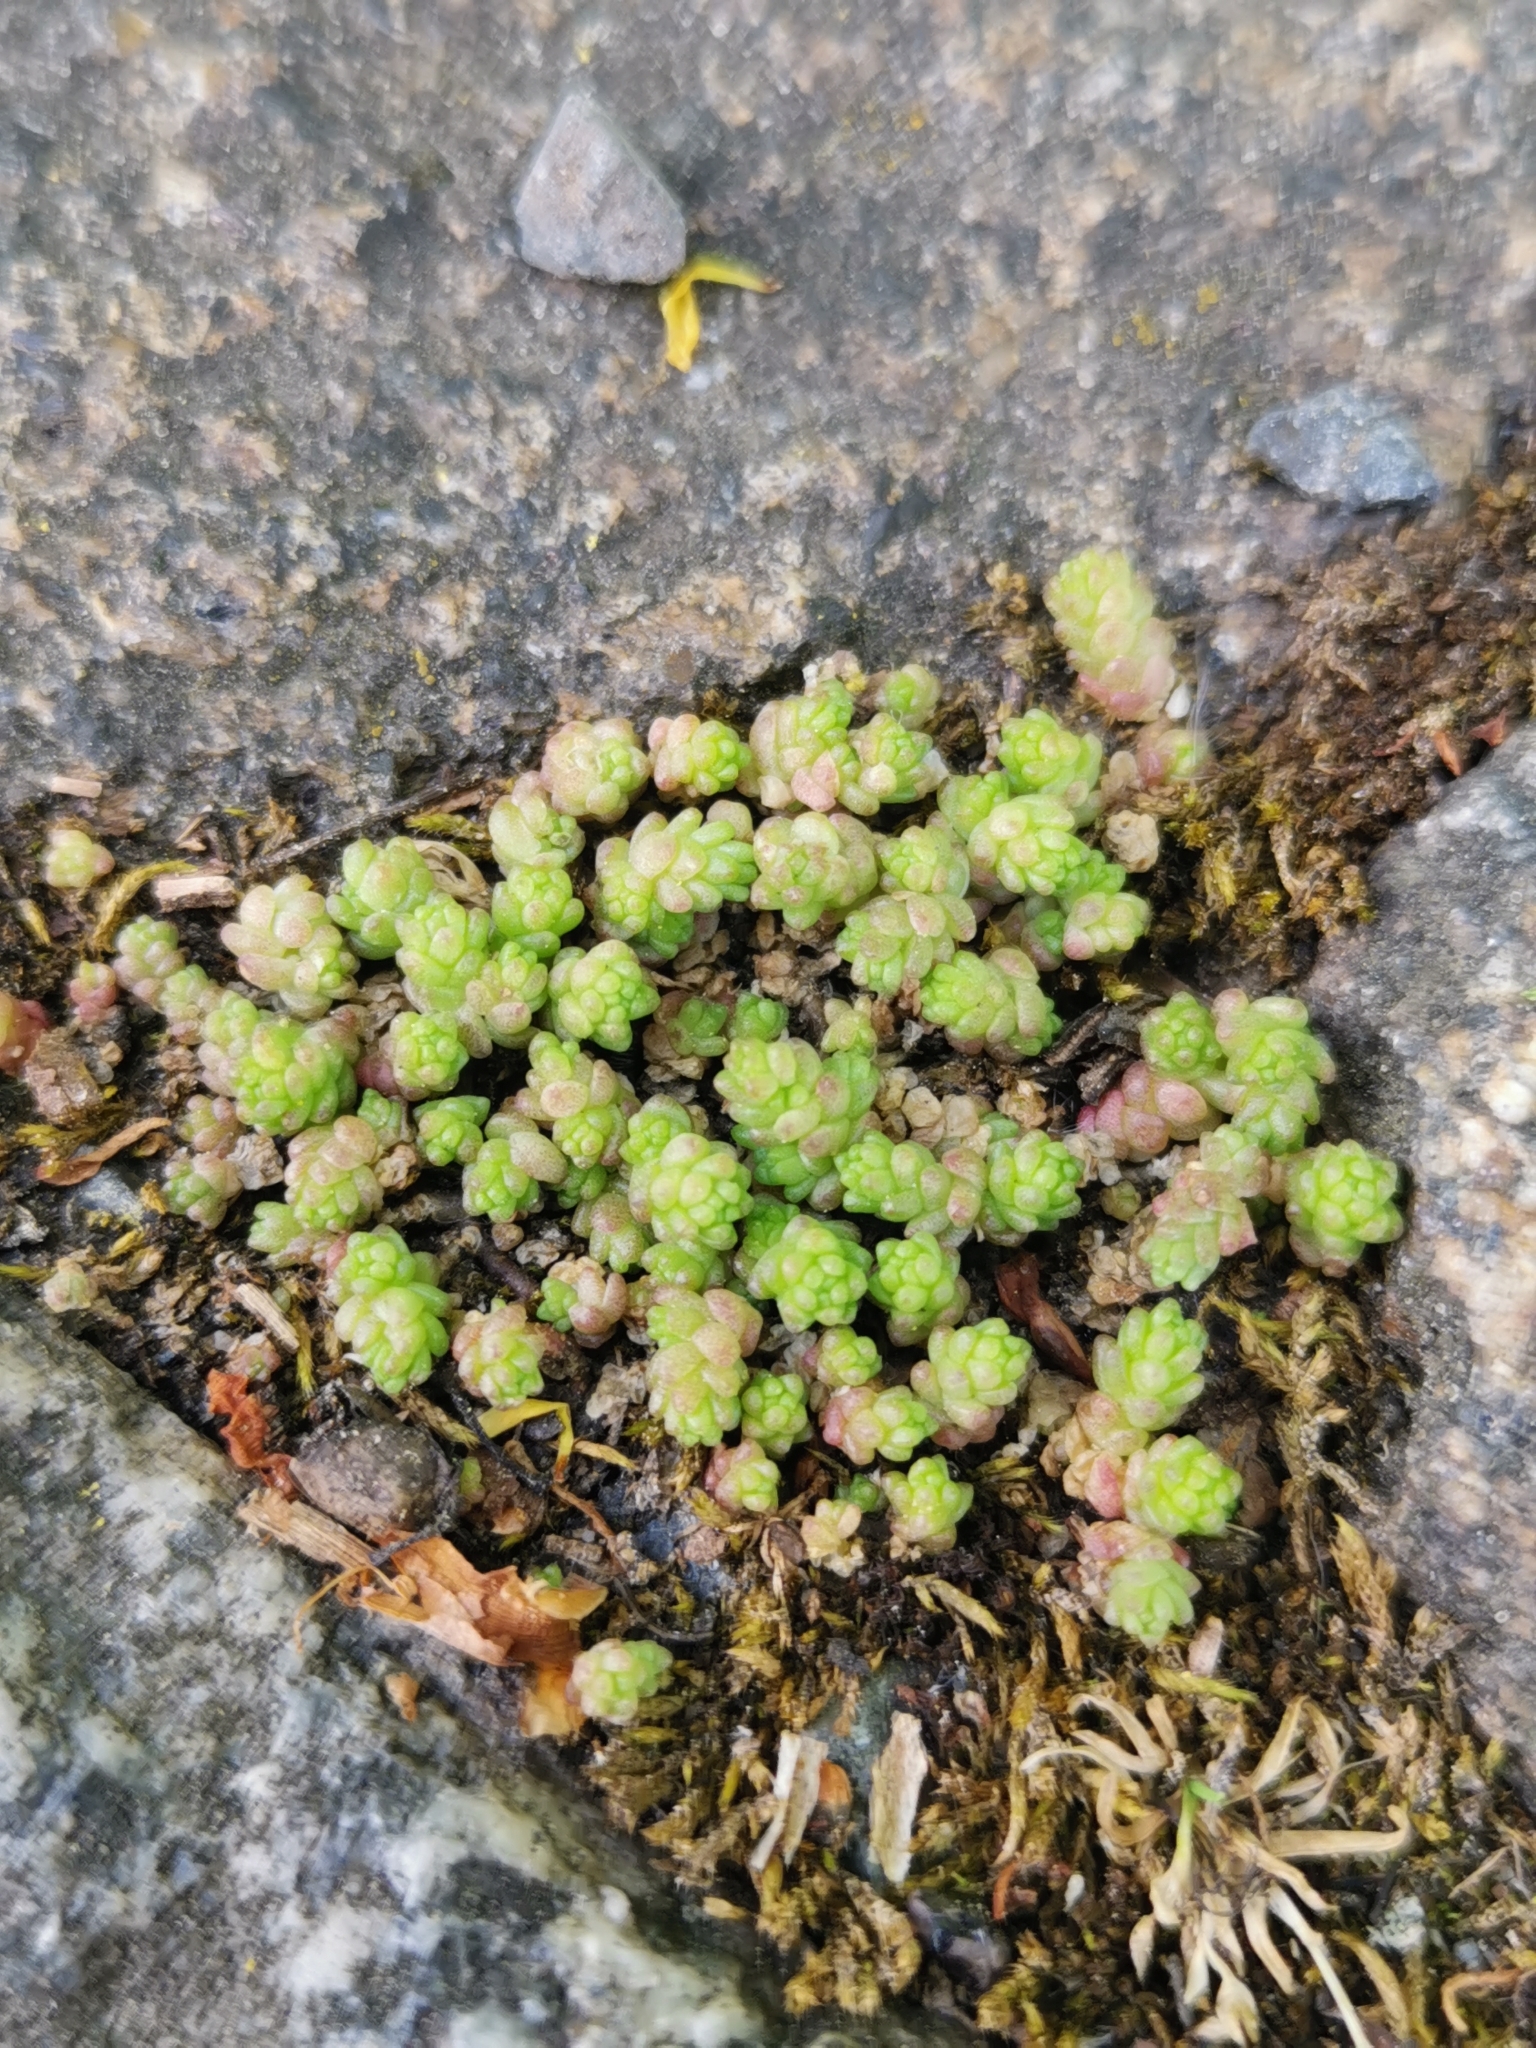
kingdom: Plantae
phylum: Tracheophyta
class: Magnoliopsida
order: Saxifragales
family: Crassulaceae
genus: Sedum
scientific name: Sedum acre
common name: Biting stonecrop
